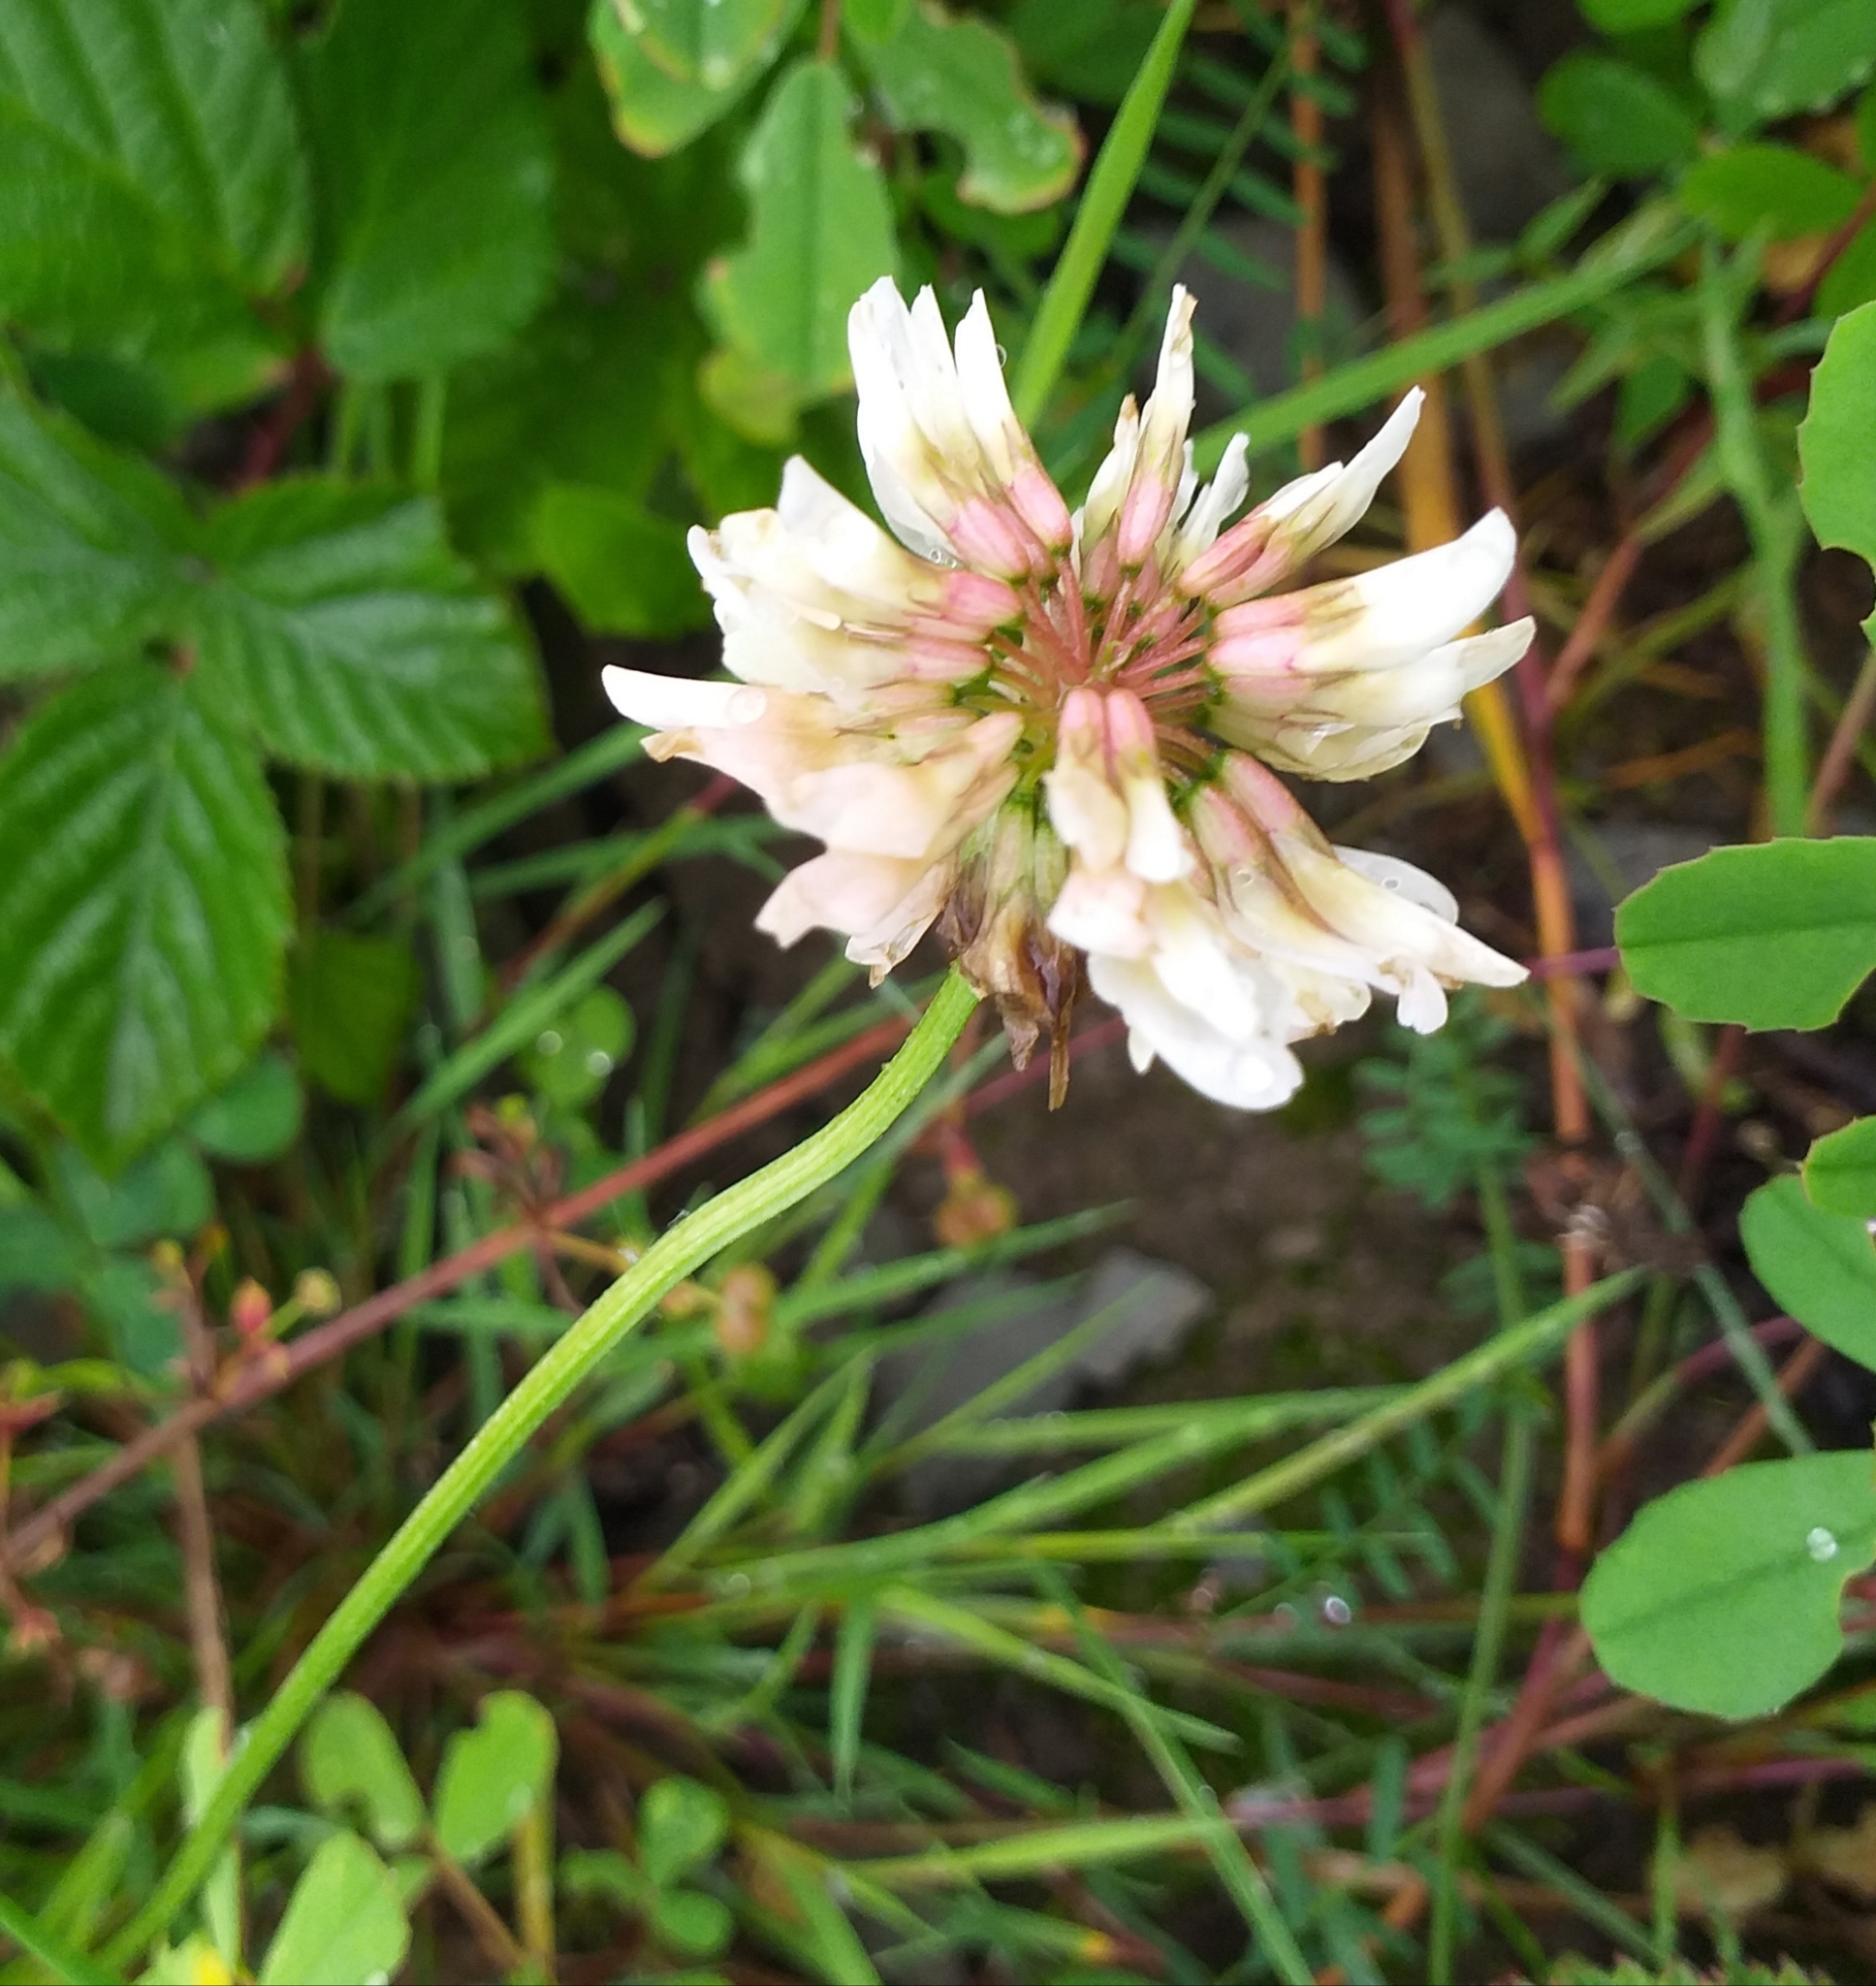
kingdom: Plantae
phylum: Tracheophyta
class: Magnoliopsida
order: Fabales
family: Fabaceae
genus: Trifolium
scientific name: Trifolium repens
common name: White clover
